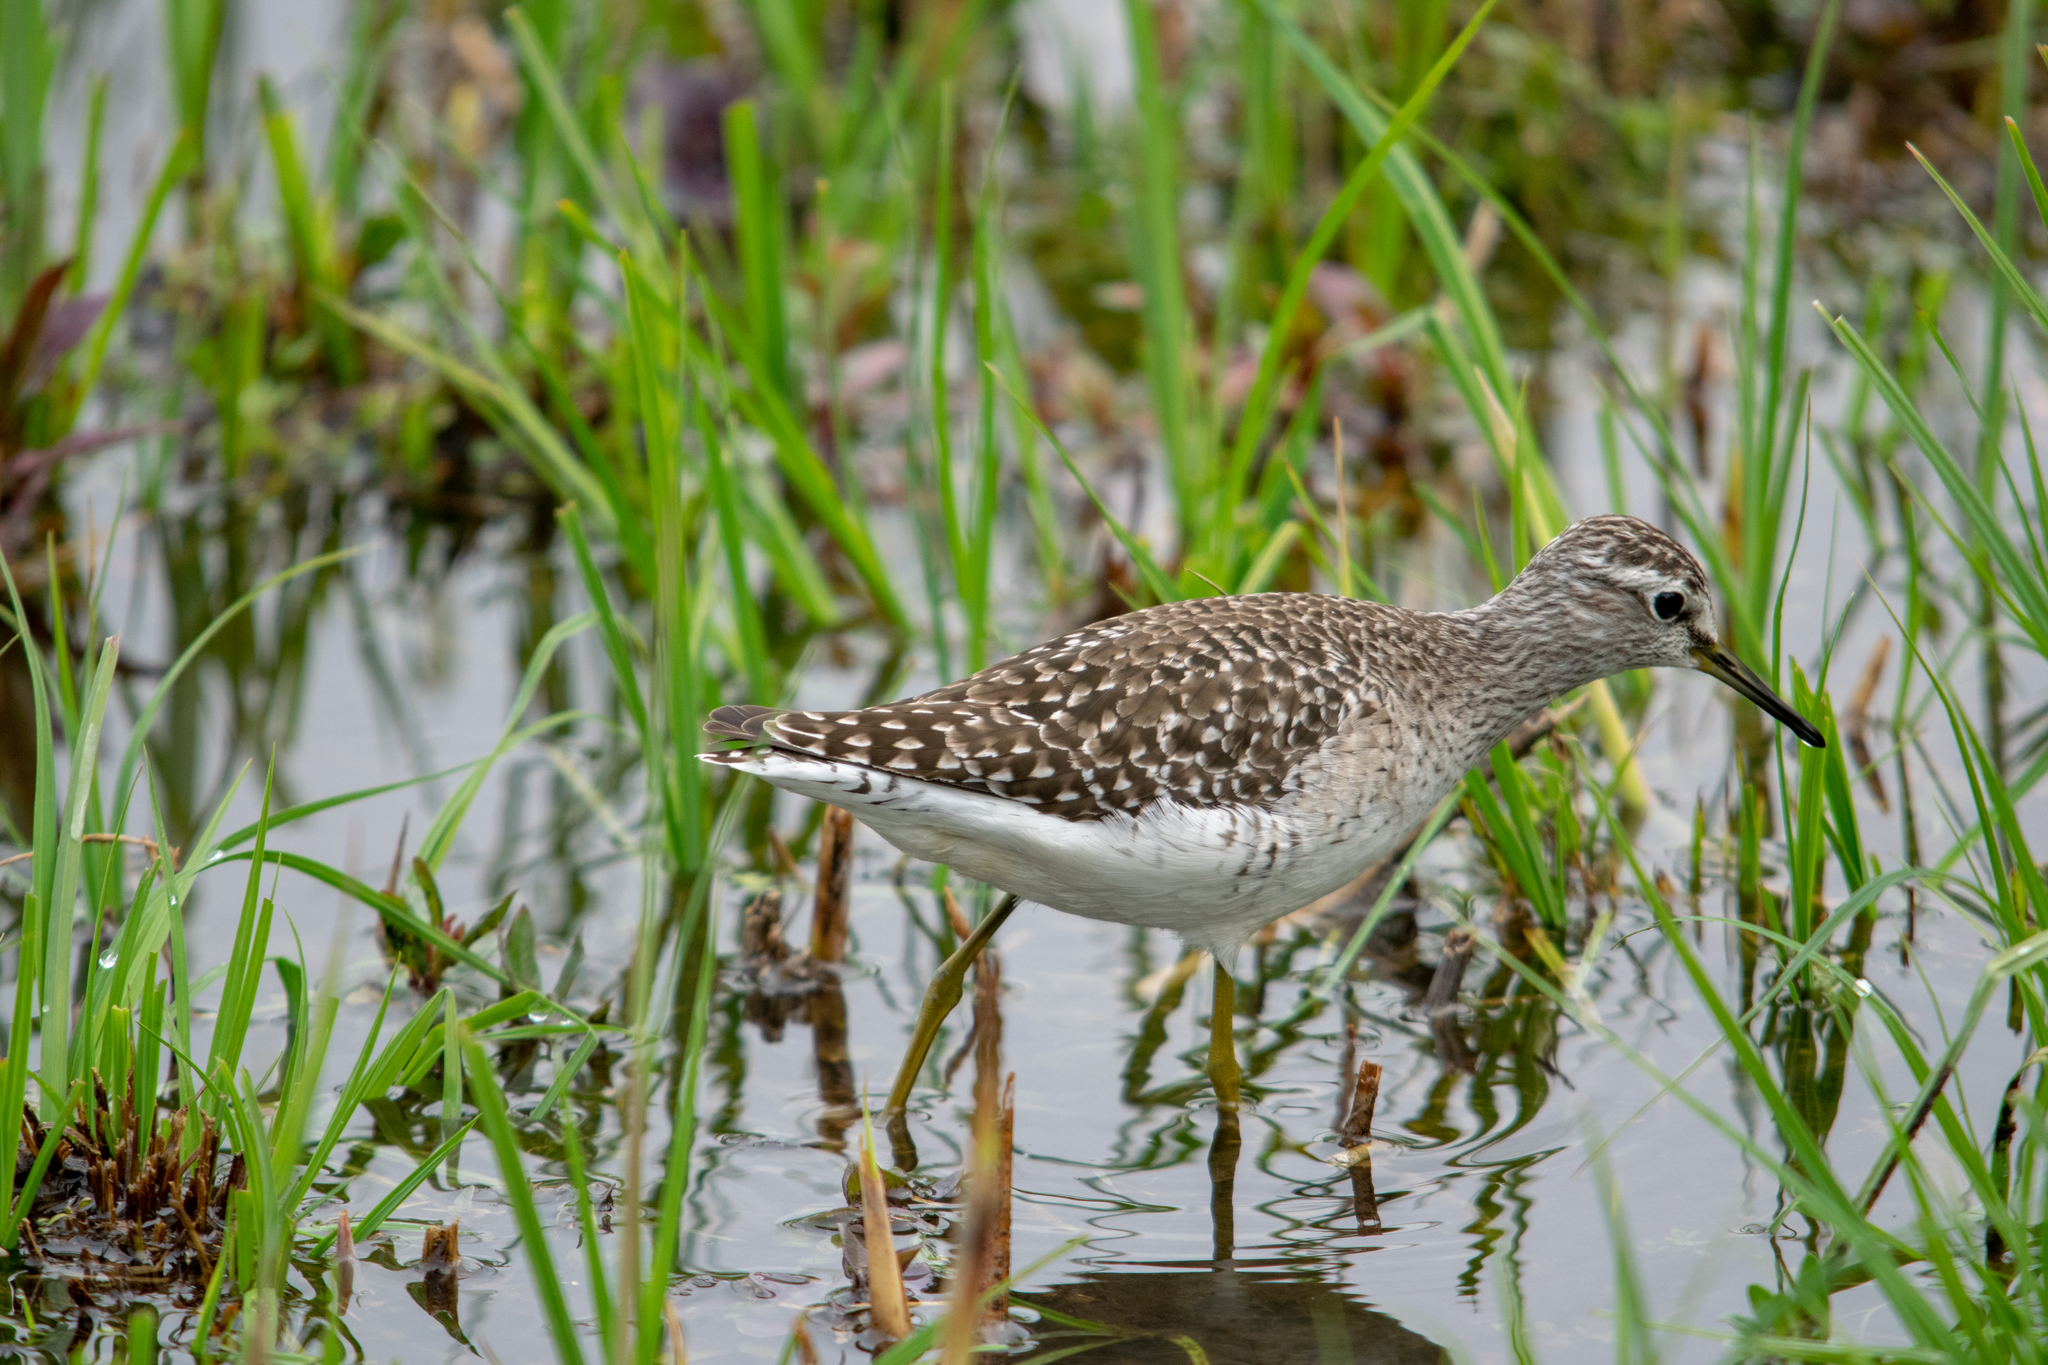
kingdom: Animalia
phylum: Chordata
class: Aves
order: Charadriiformes
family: Scolopacidae
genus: Tringa
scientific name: Tringa glareola
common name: Wood sandpiper
